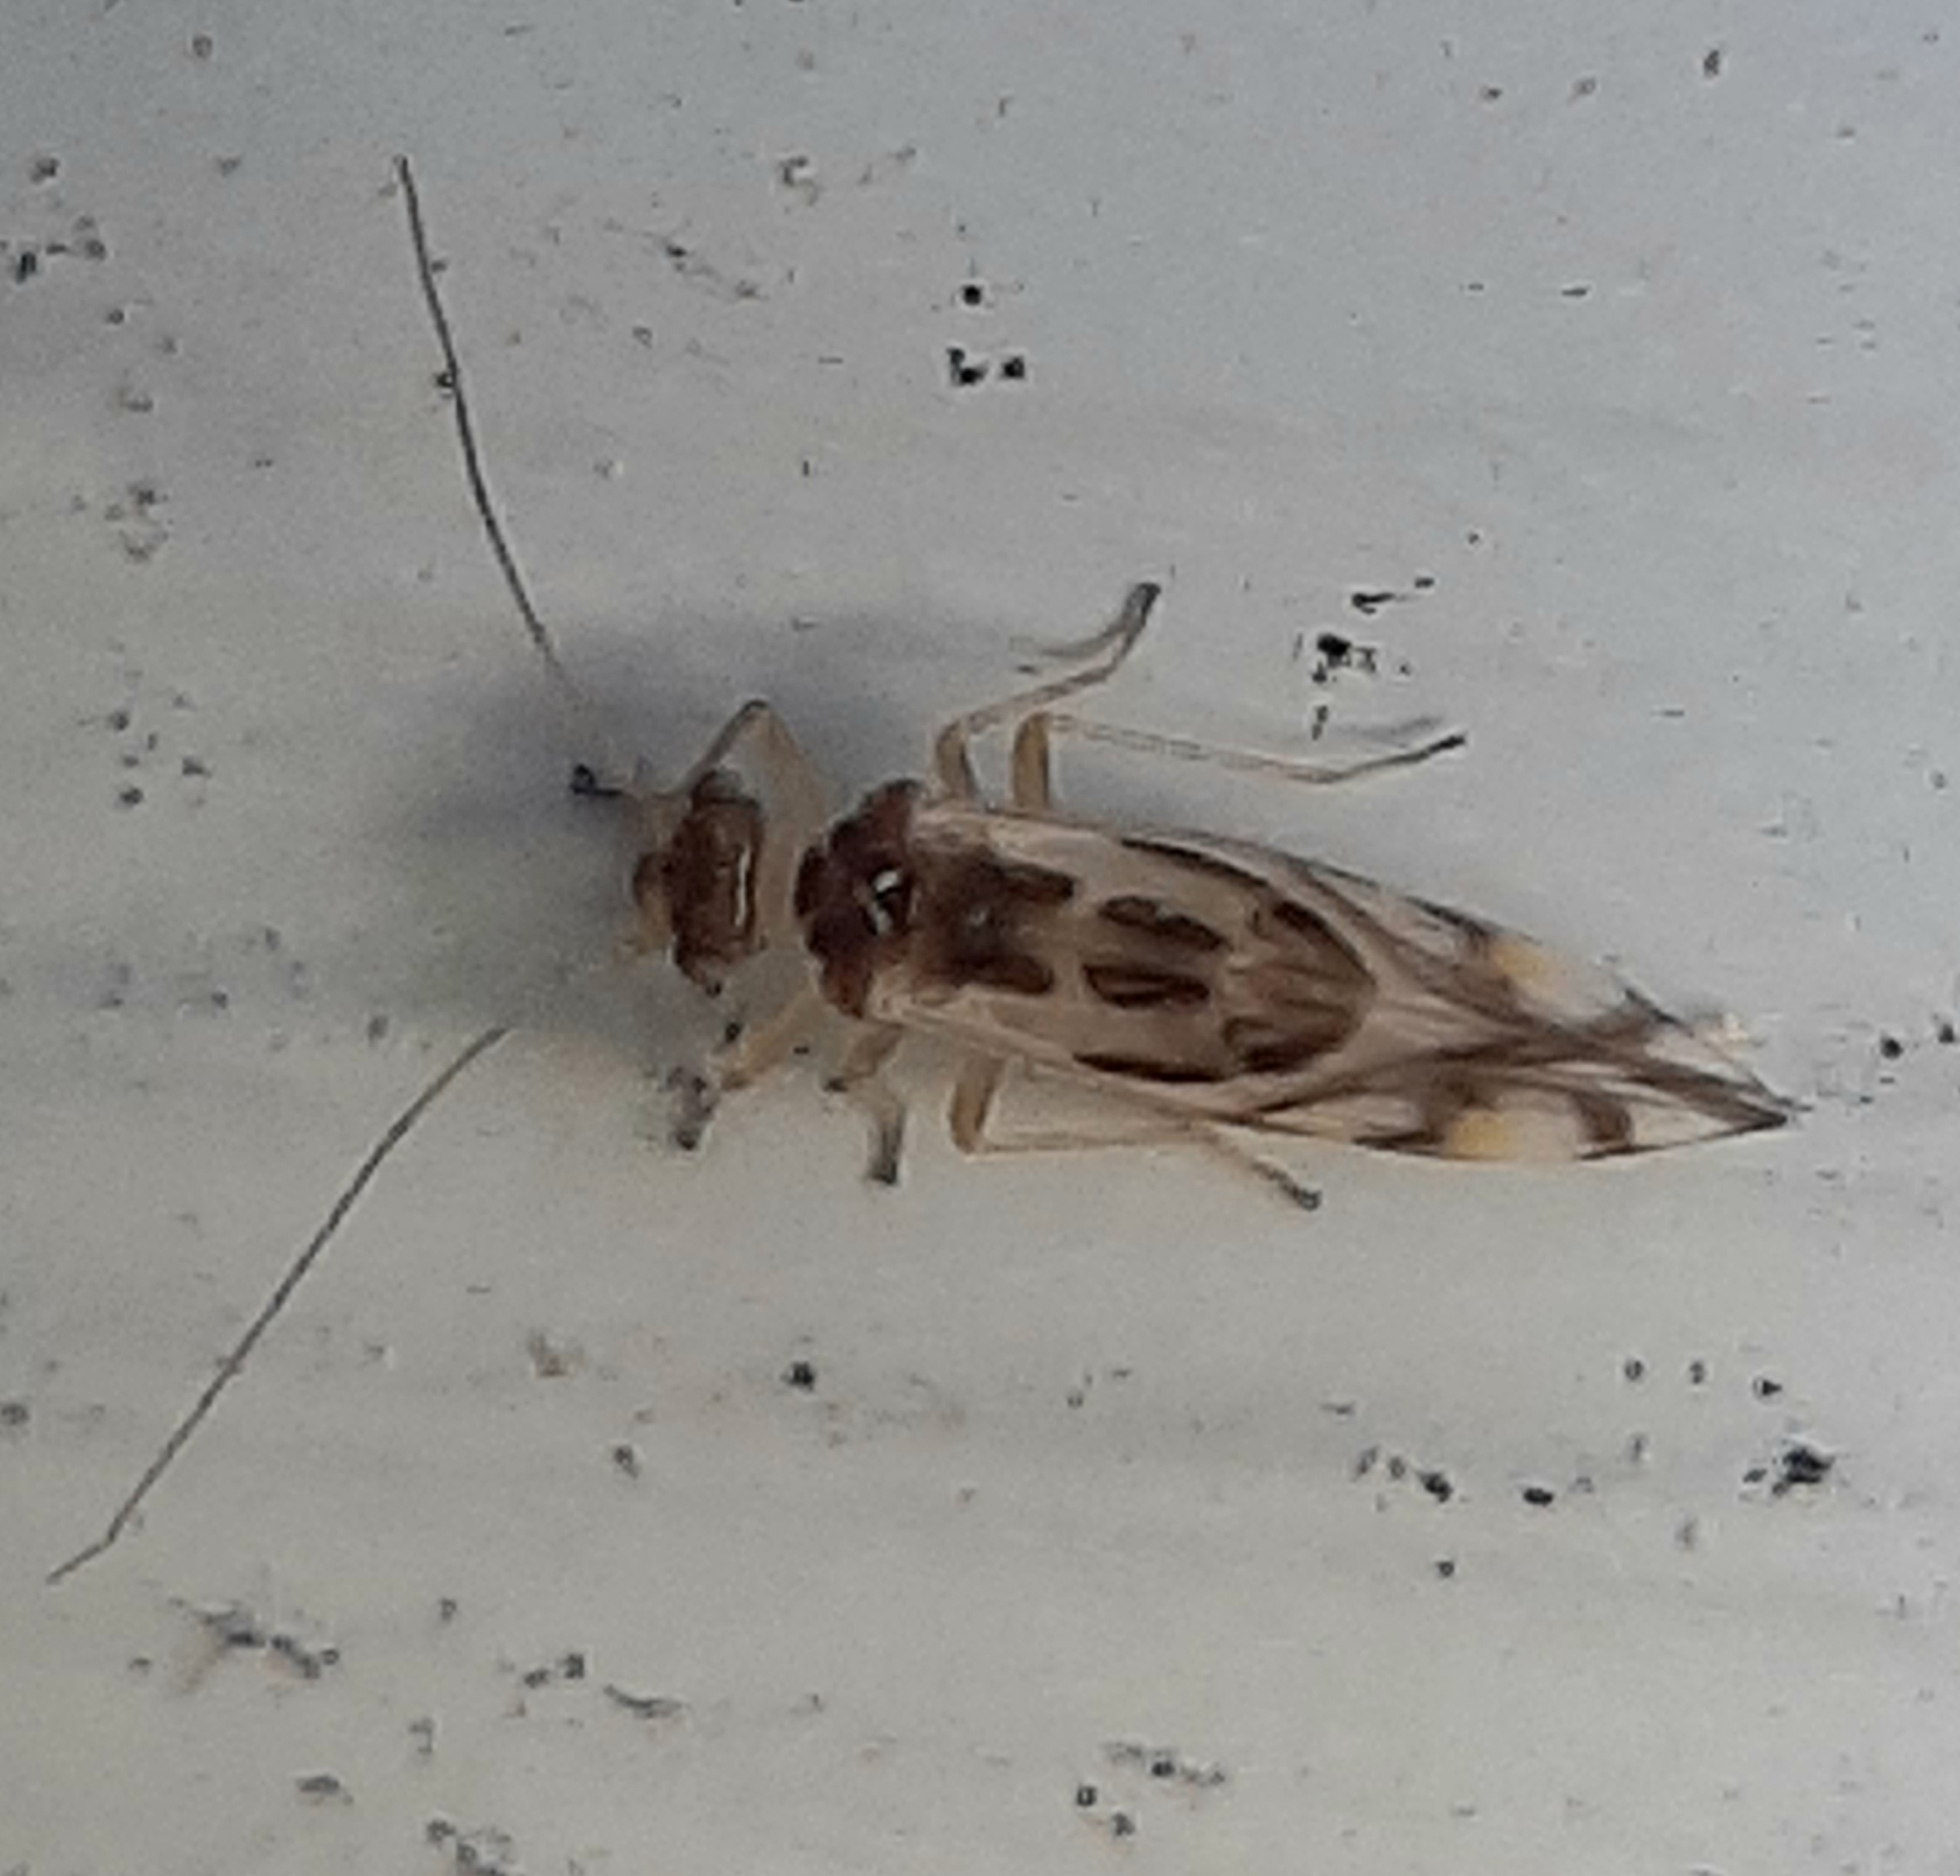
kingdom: Animalia
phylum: Arthropoda
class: Insecta
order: Psocodea
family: Stenopsocidae
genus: Graphopsocus
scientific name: Graphopsocus cruciatus
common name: Lizard bark louse
